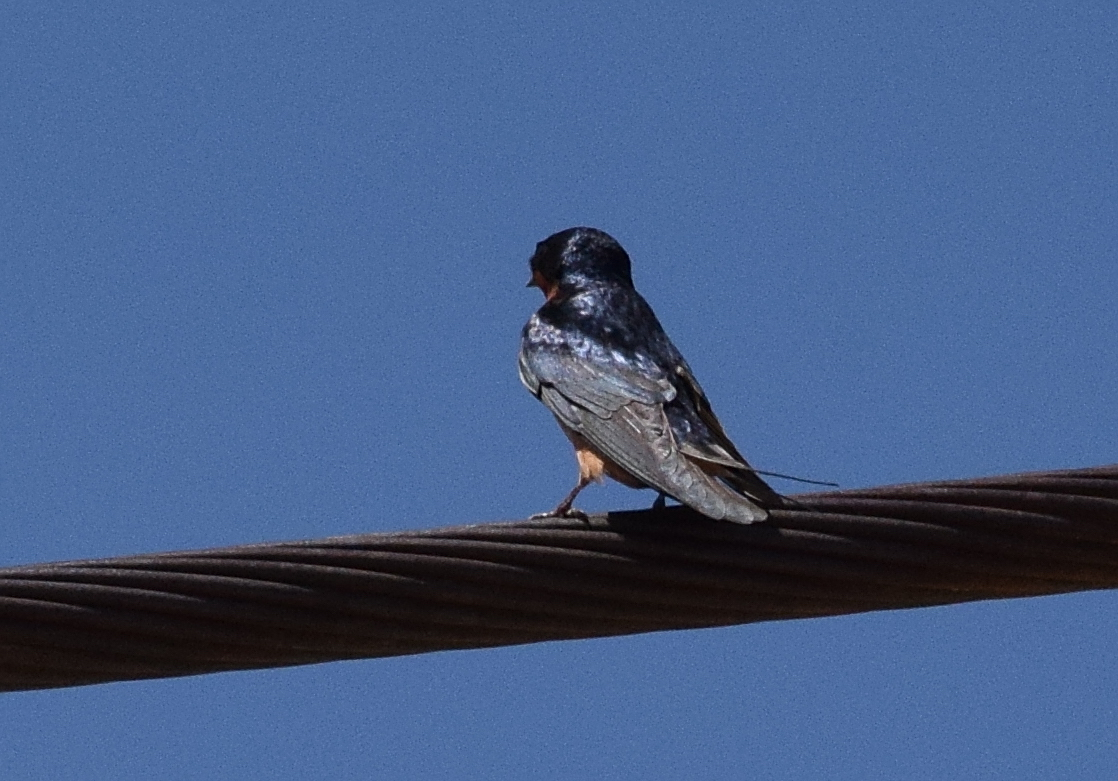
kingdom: Animalia
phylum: Chordata
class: Aves
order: Passeriformes
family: Hirundinidae
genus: Hirundo
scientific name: Hirundo rustica
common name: Barn swallow
